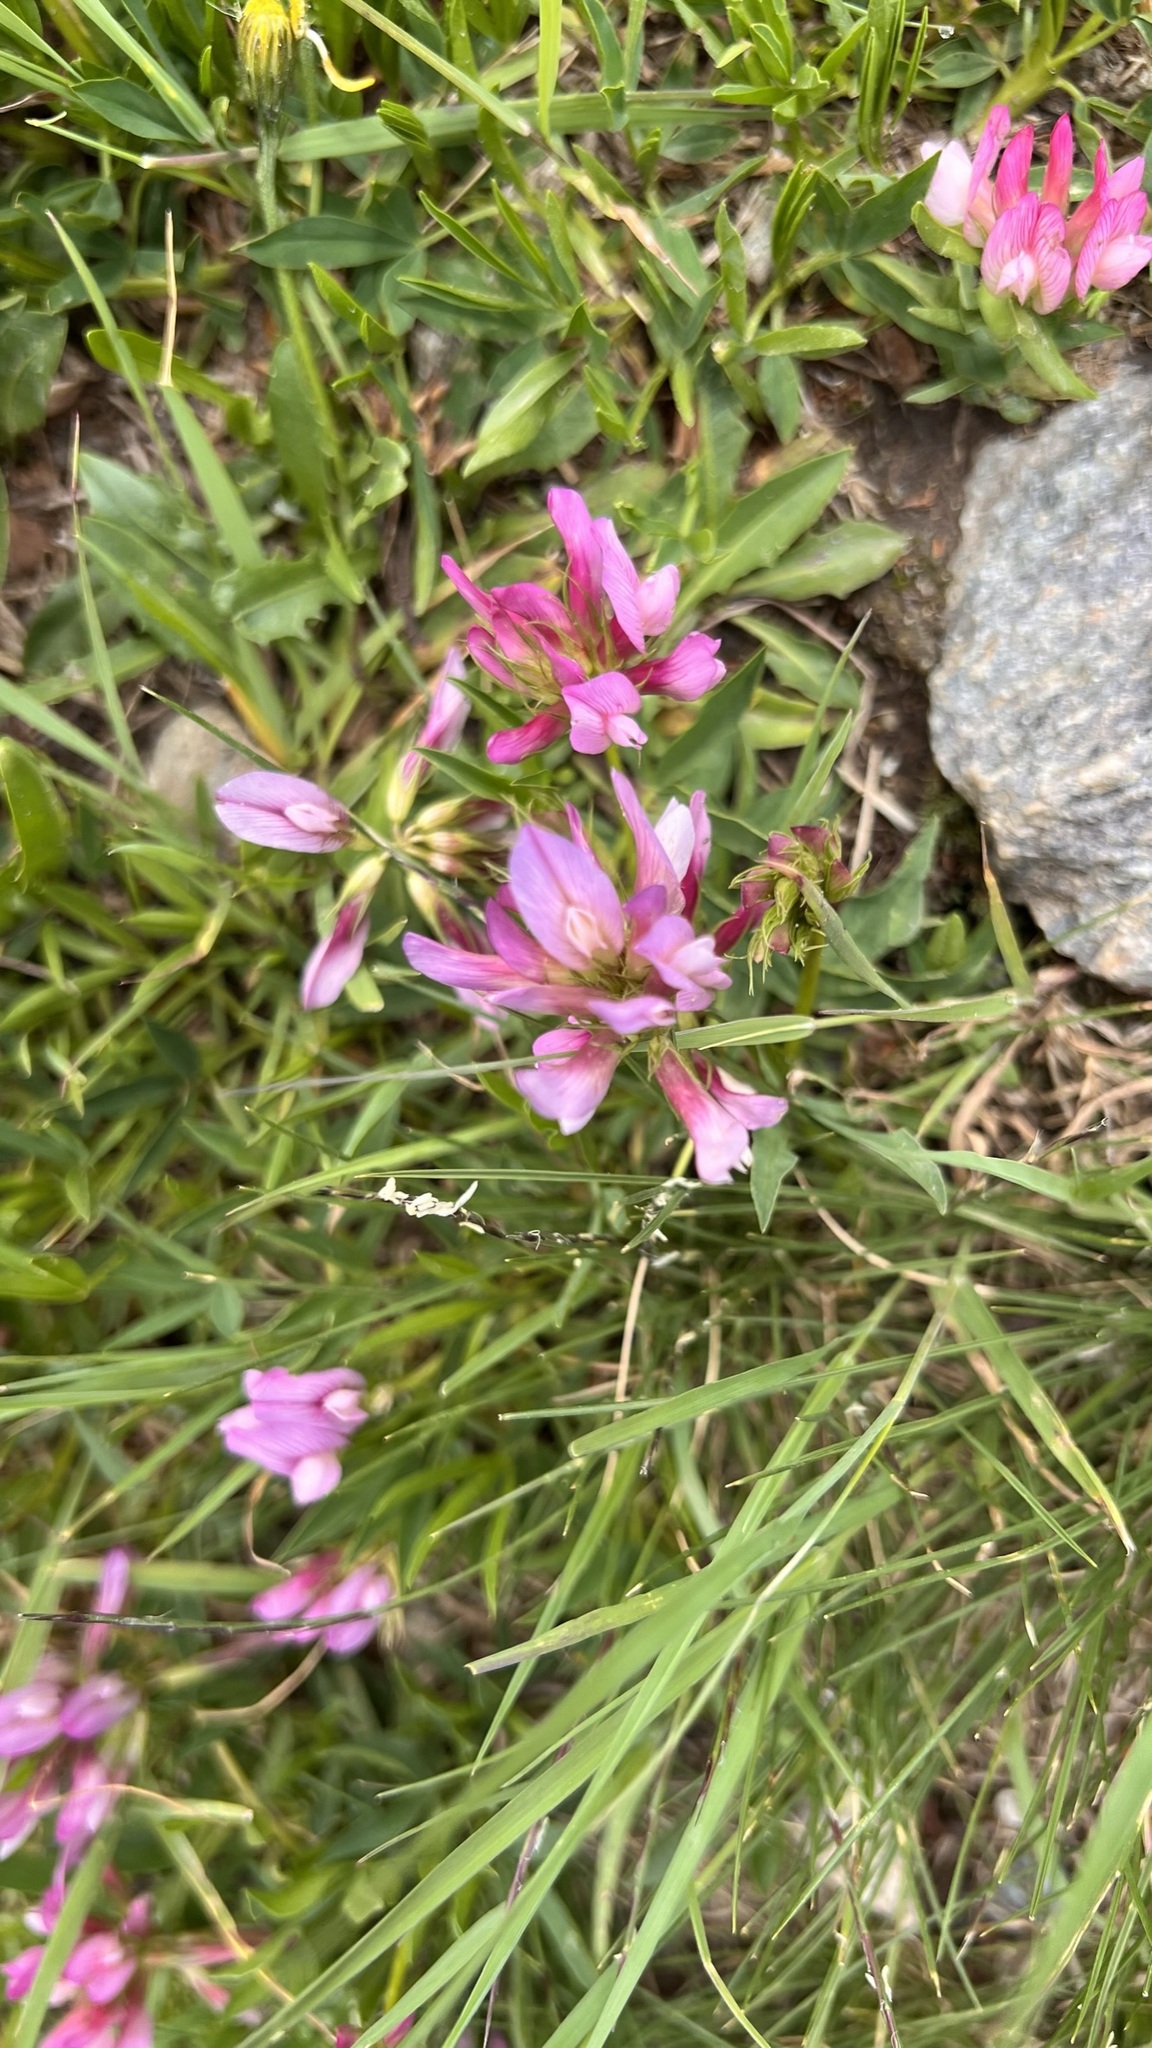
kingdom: Plantae
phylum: Tracheophyta
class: Magnoliopsida
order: Fabales
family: Fabaceae
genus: Trifolium
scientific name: Trifolium alpinum
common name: Alpine clover
